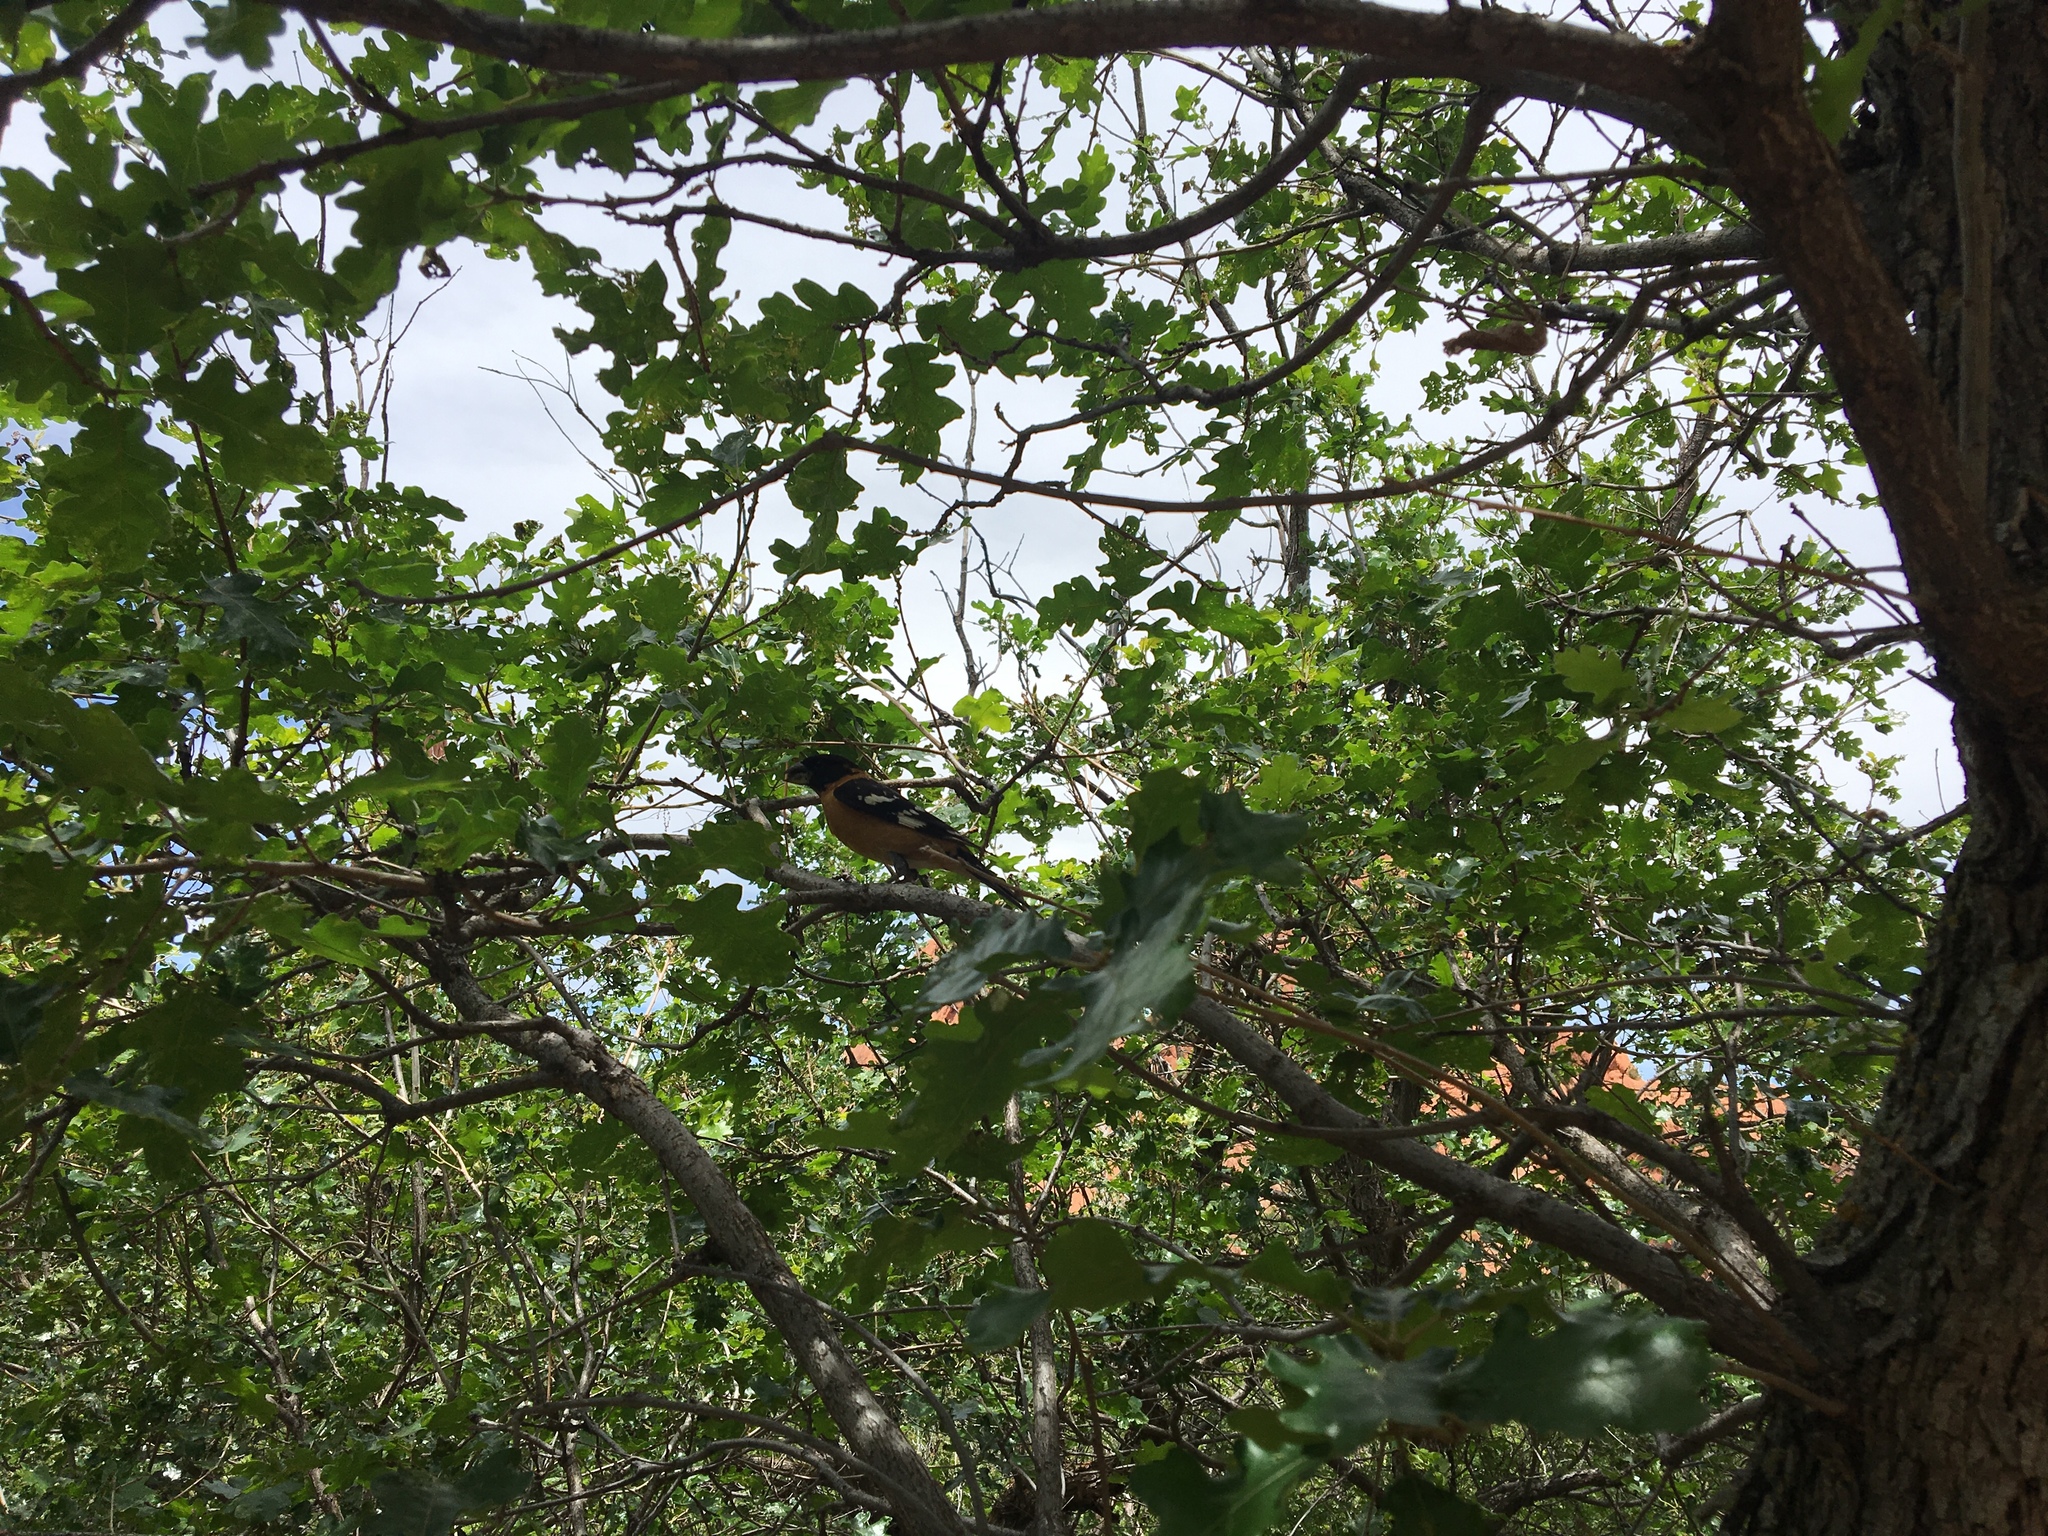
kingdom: Animalia
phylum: Chordata
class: Aves
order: Passeriformes
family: Cardinalidae
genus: Pheucticus
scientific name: Pheucticus melanocephalus
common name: Black-headed grosbeak
